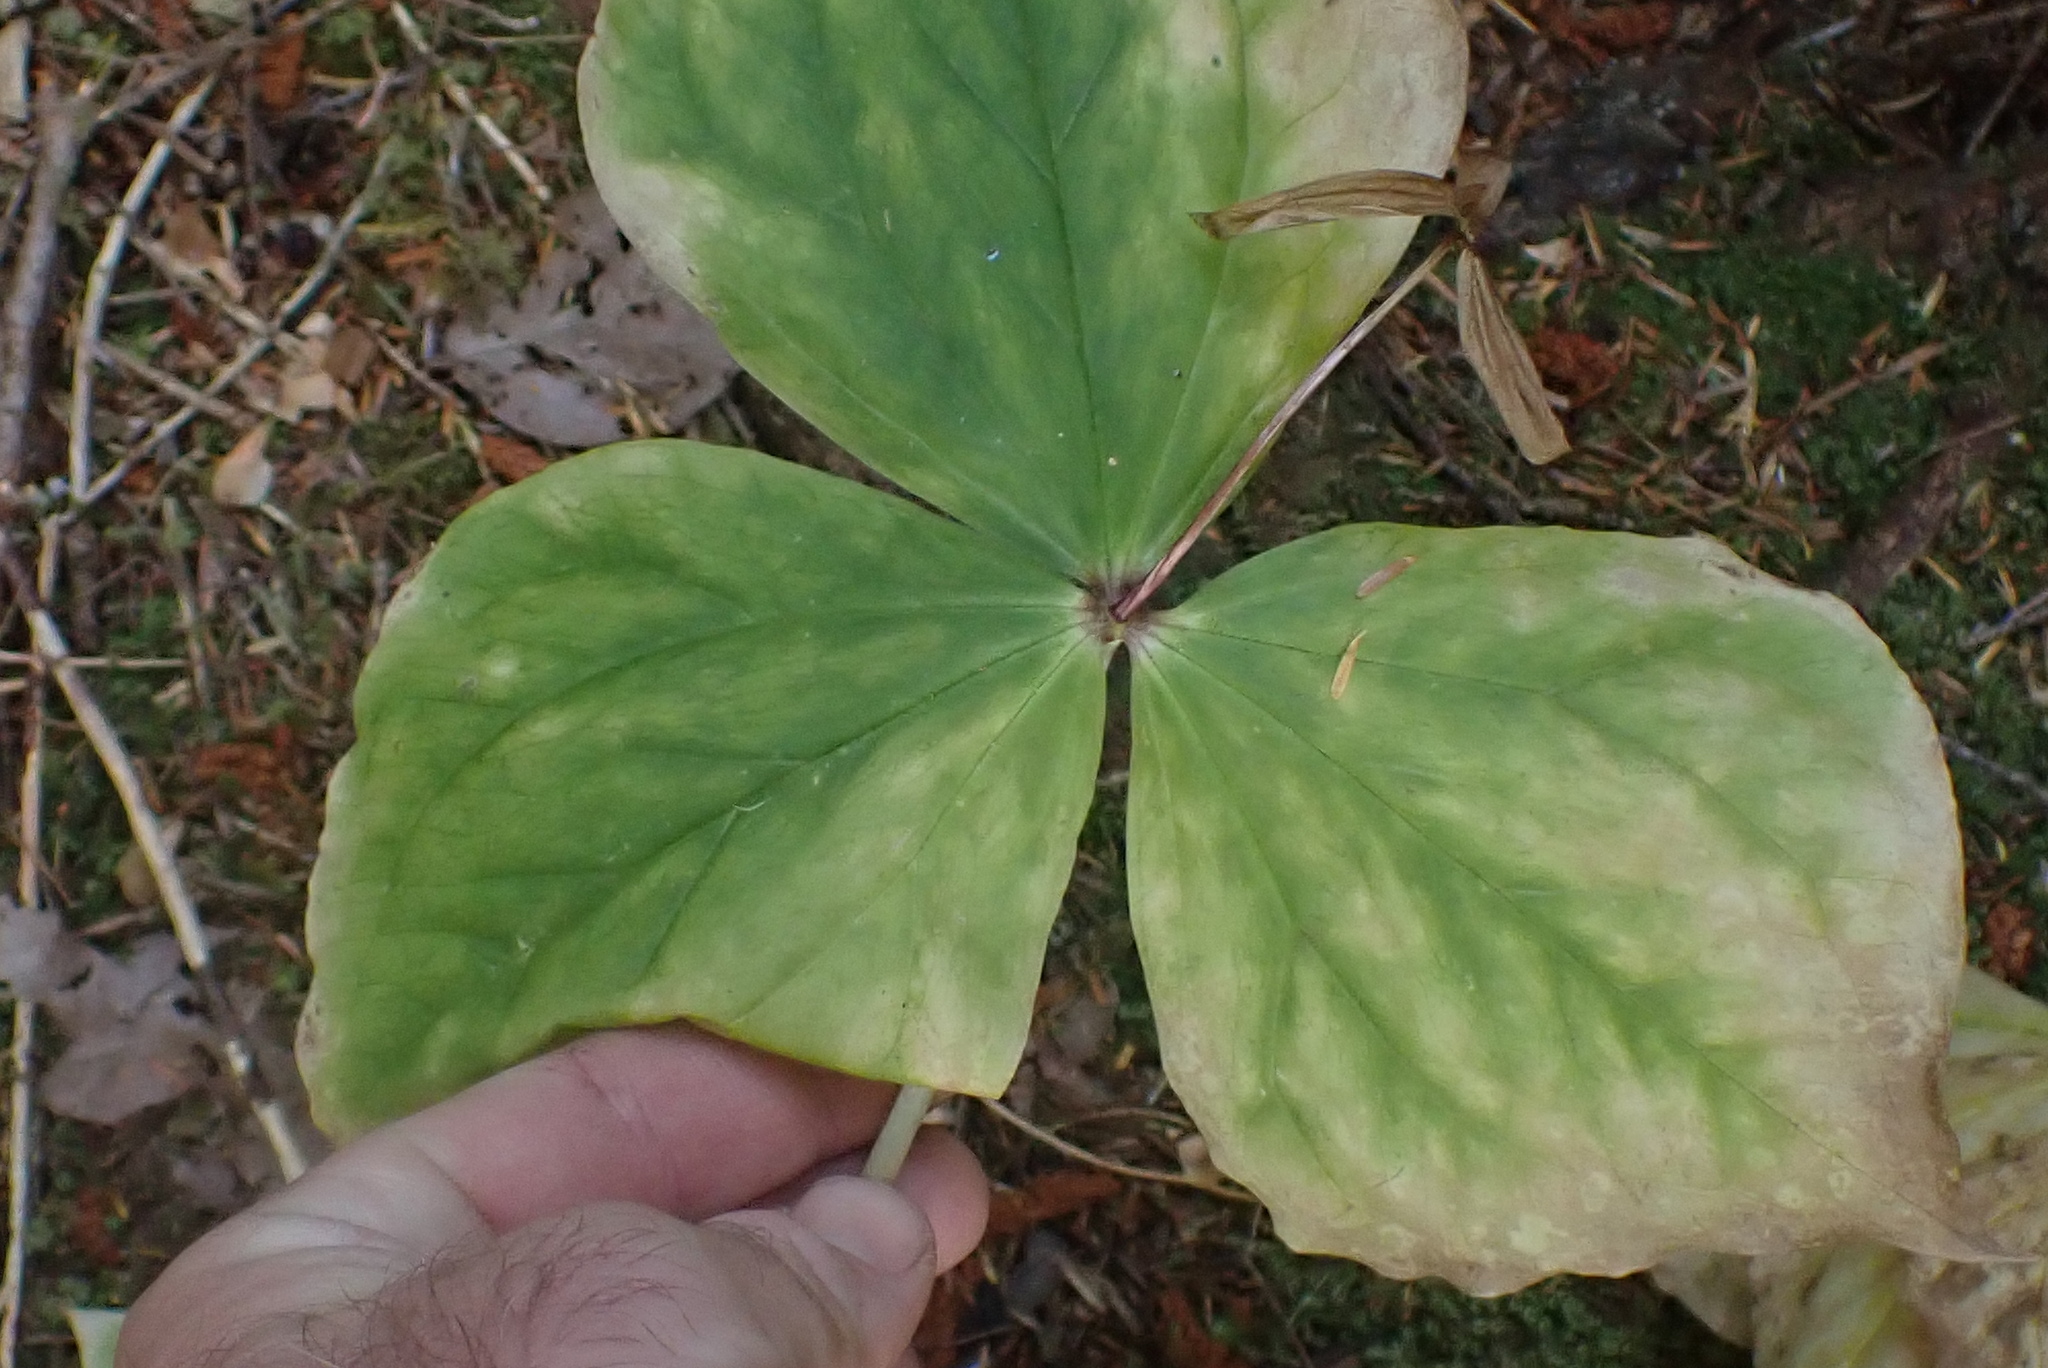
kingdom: Plantae
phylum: Tracheophyta
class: Liliopsida
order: Liliales
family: Melanthiaceae
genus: Trillium
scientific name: Trillium ovatum
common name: Pacific trillium
